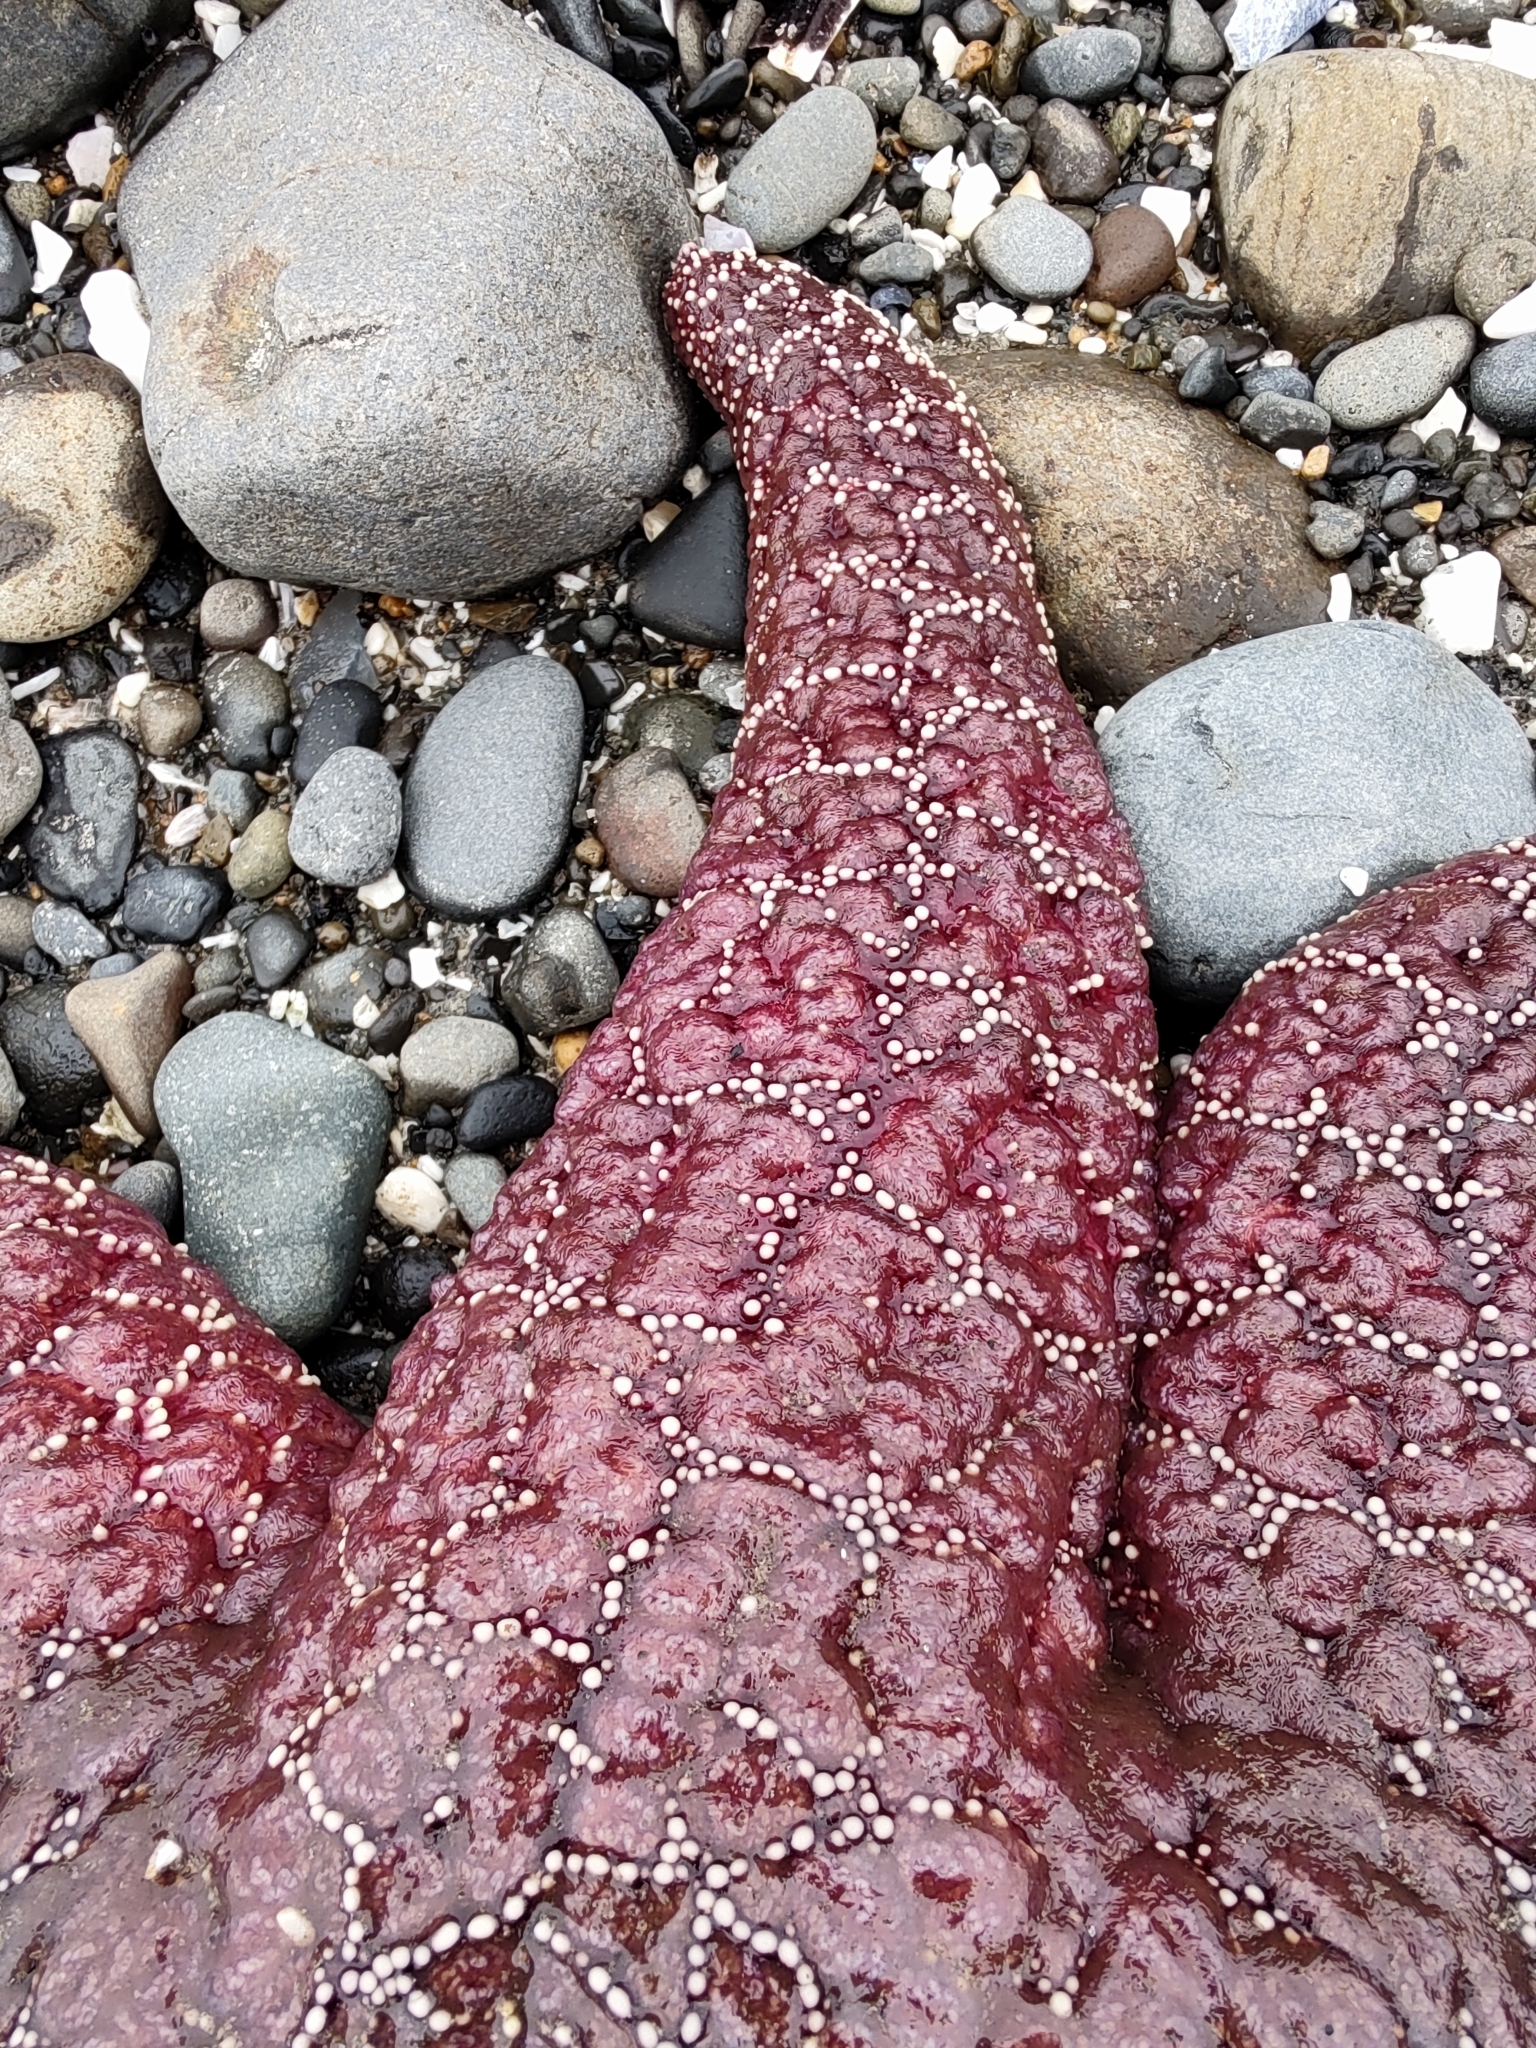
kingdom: Animalia
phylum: Echinodermata
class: Asteroidea
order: Forcipulatida
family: Asteriidae
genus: Pisaster
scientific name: Pisaster ochraceus
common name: Ochre stars
